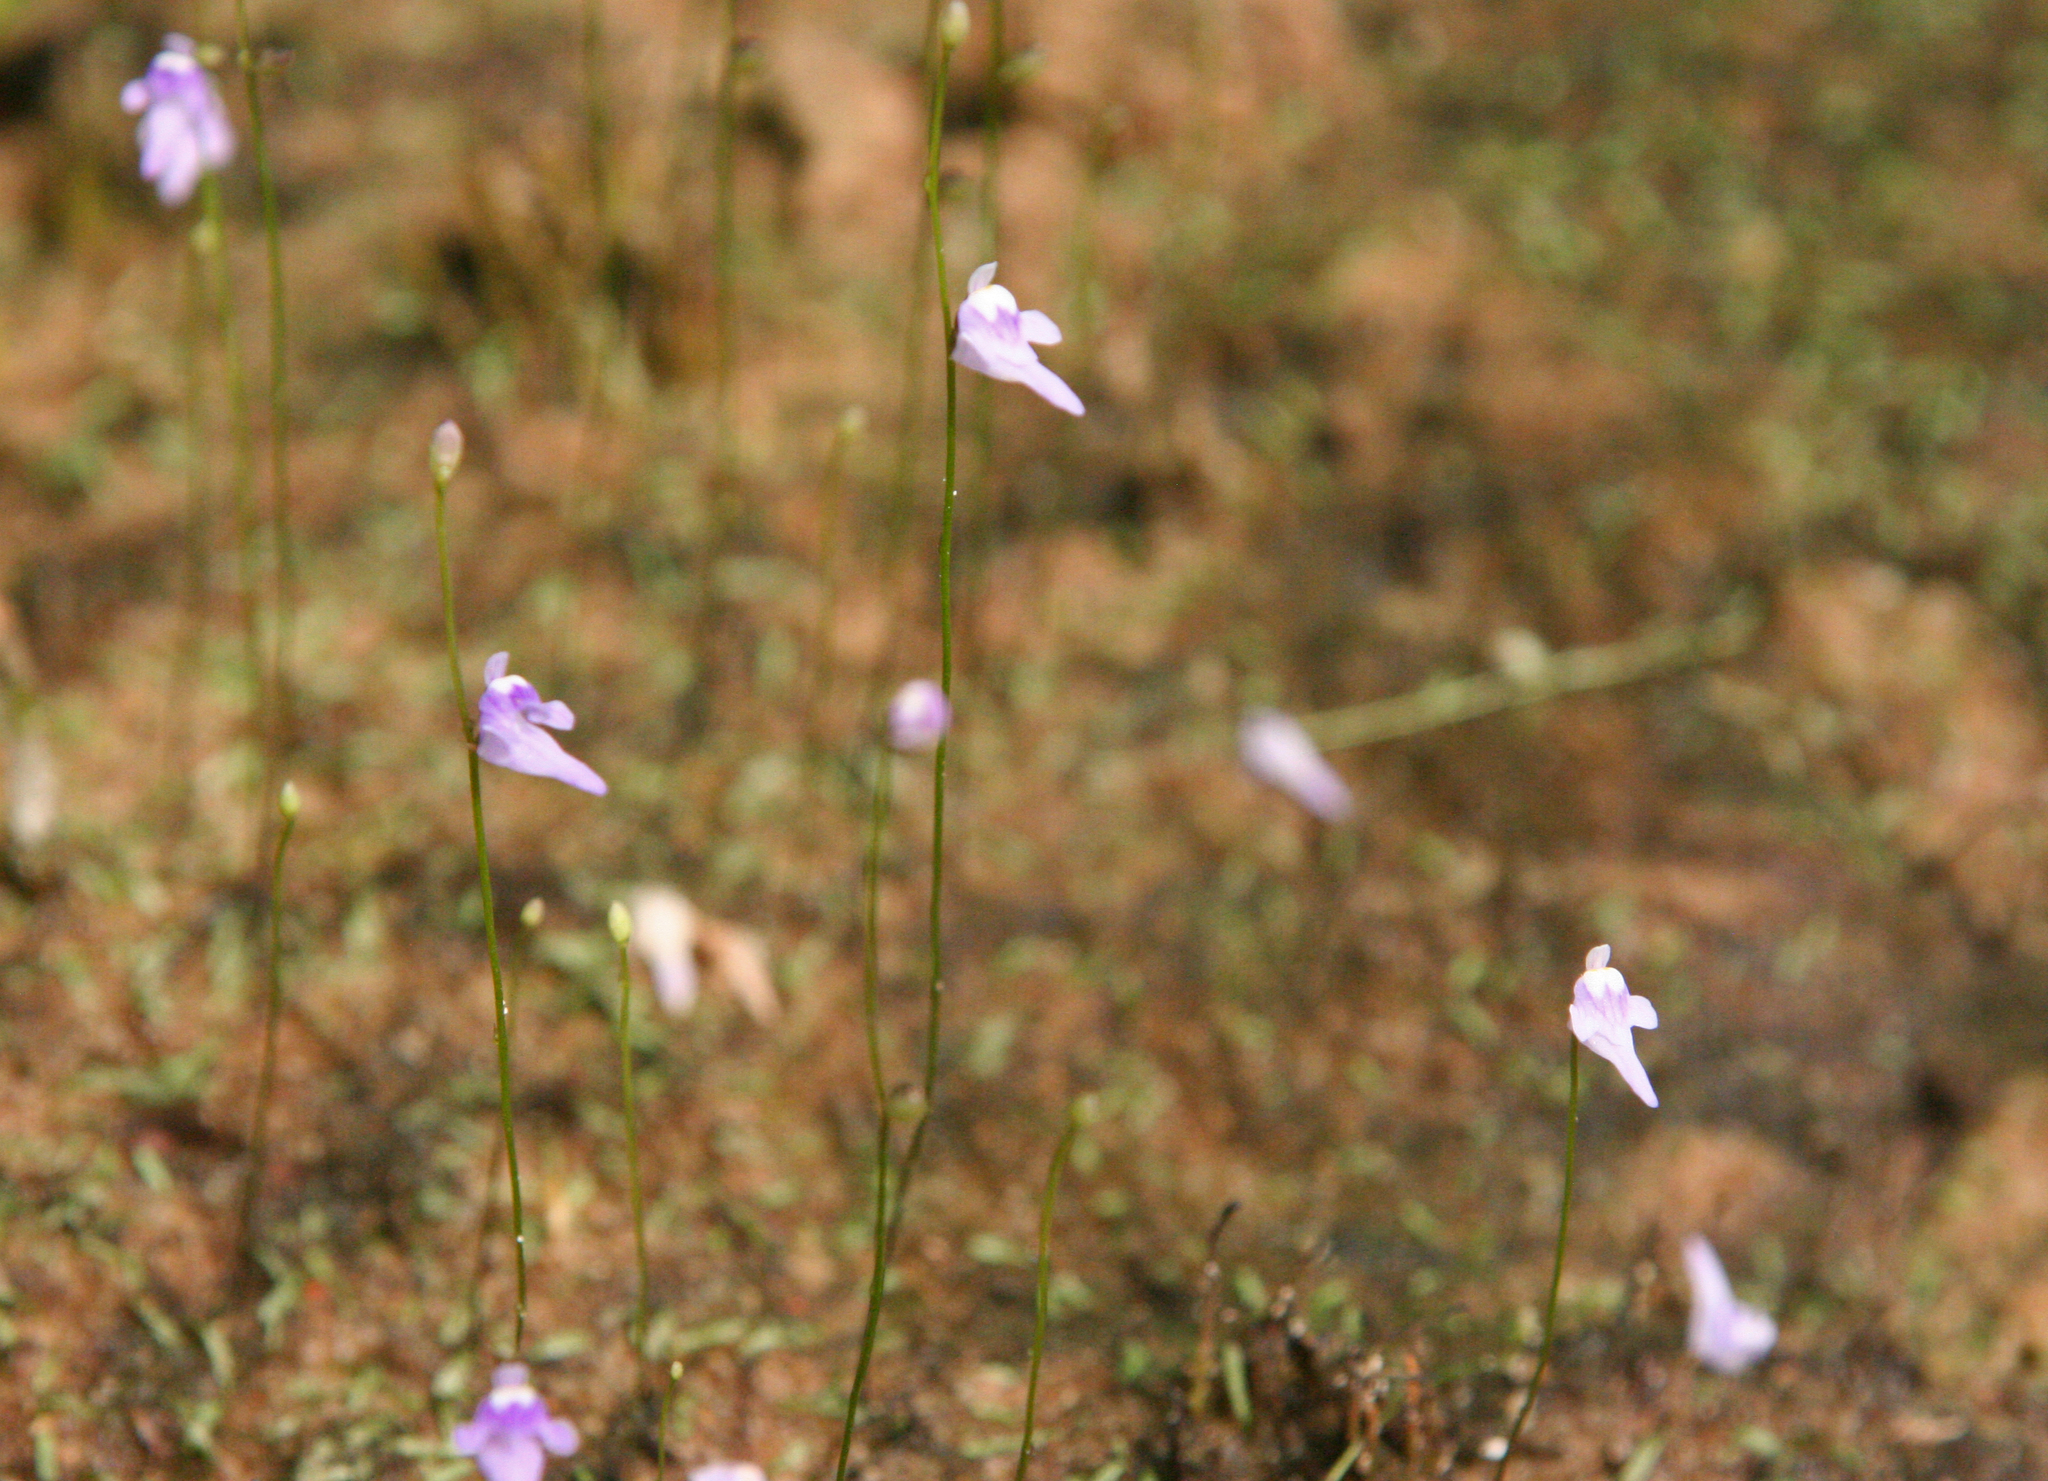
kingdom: Plantae
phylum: Tracheophyta
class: Magnoliopsida
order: Lamiales
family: Lentibulariaceae
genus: Utricularia
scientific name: Utricularia geoffrayi
